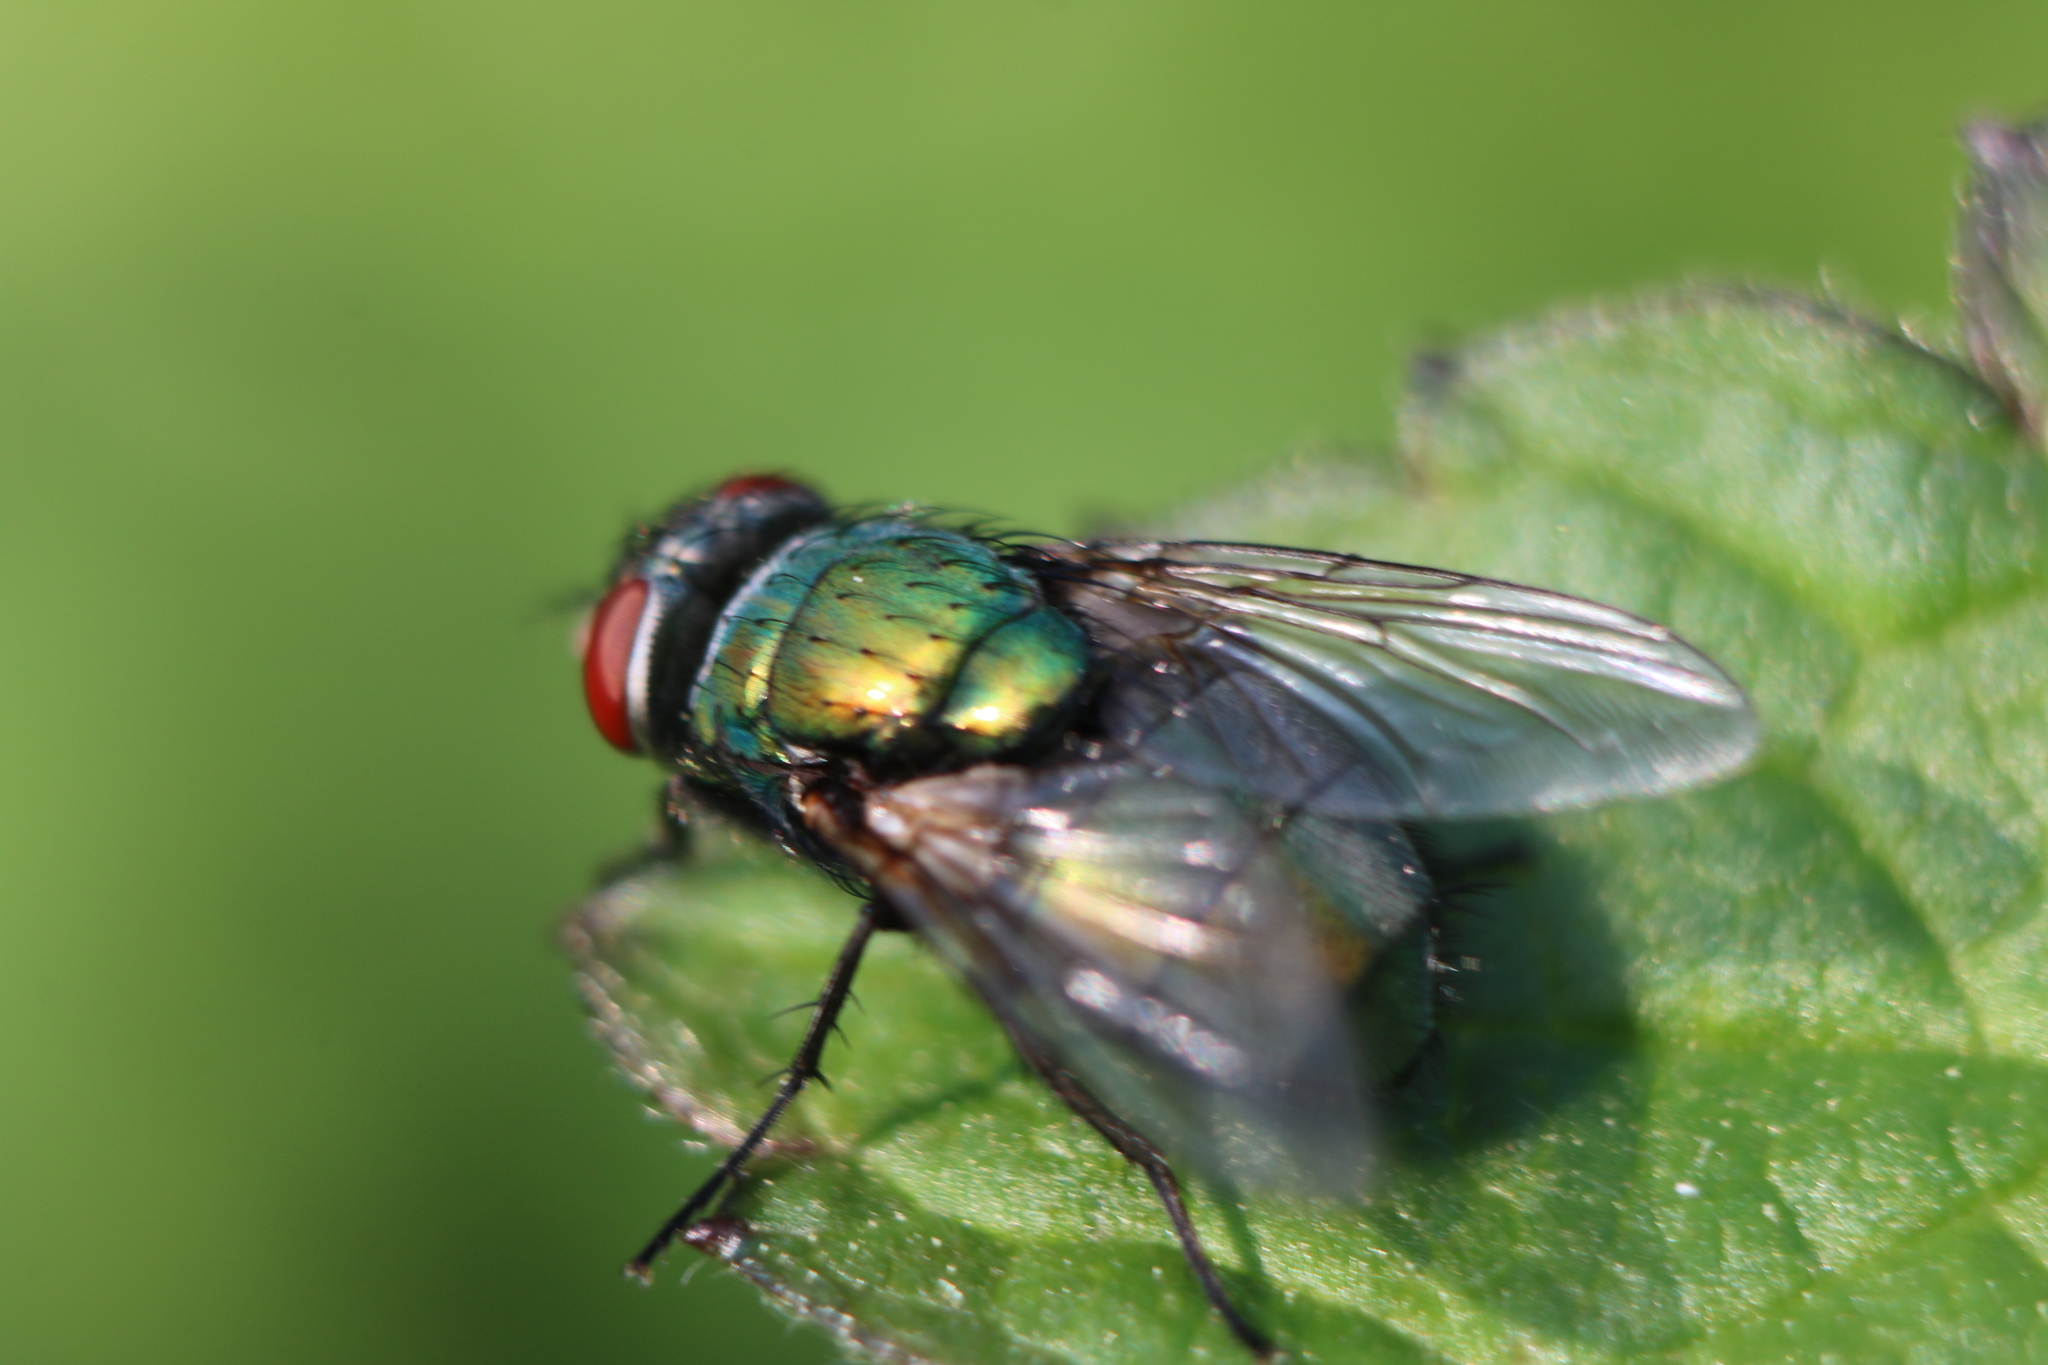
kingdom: Animalia
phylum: Arthropoda
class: Insecta
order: Diptera
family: Calliphoridae
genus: Lucilia
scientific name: Lucilia sericata
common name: Blow fly
